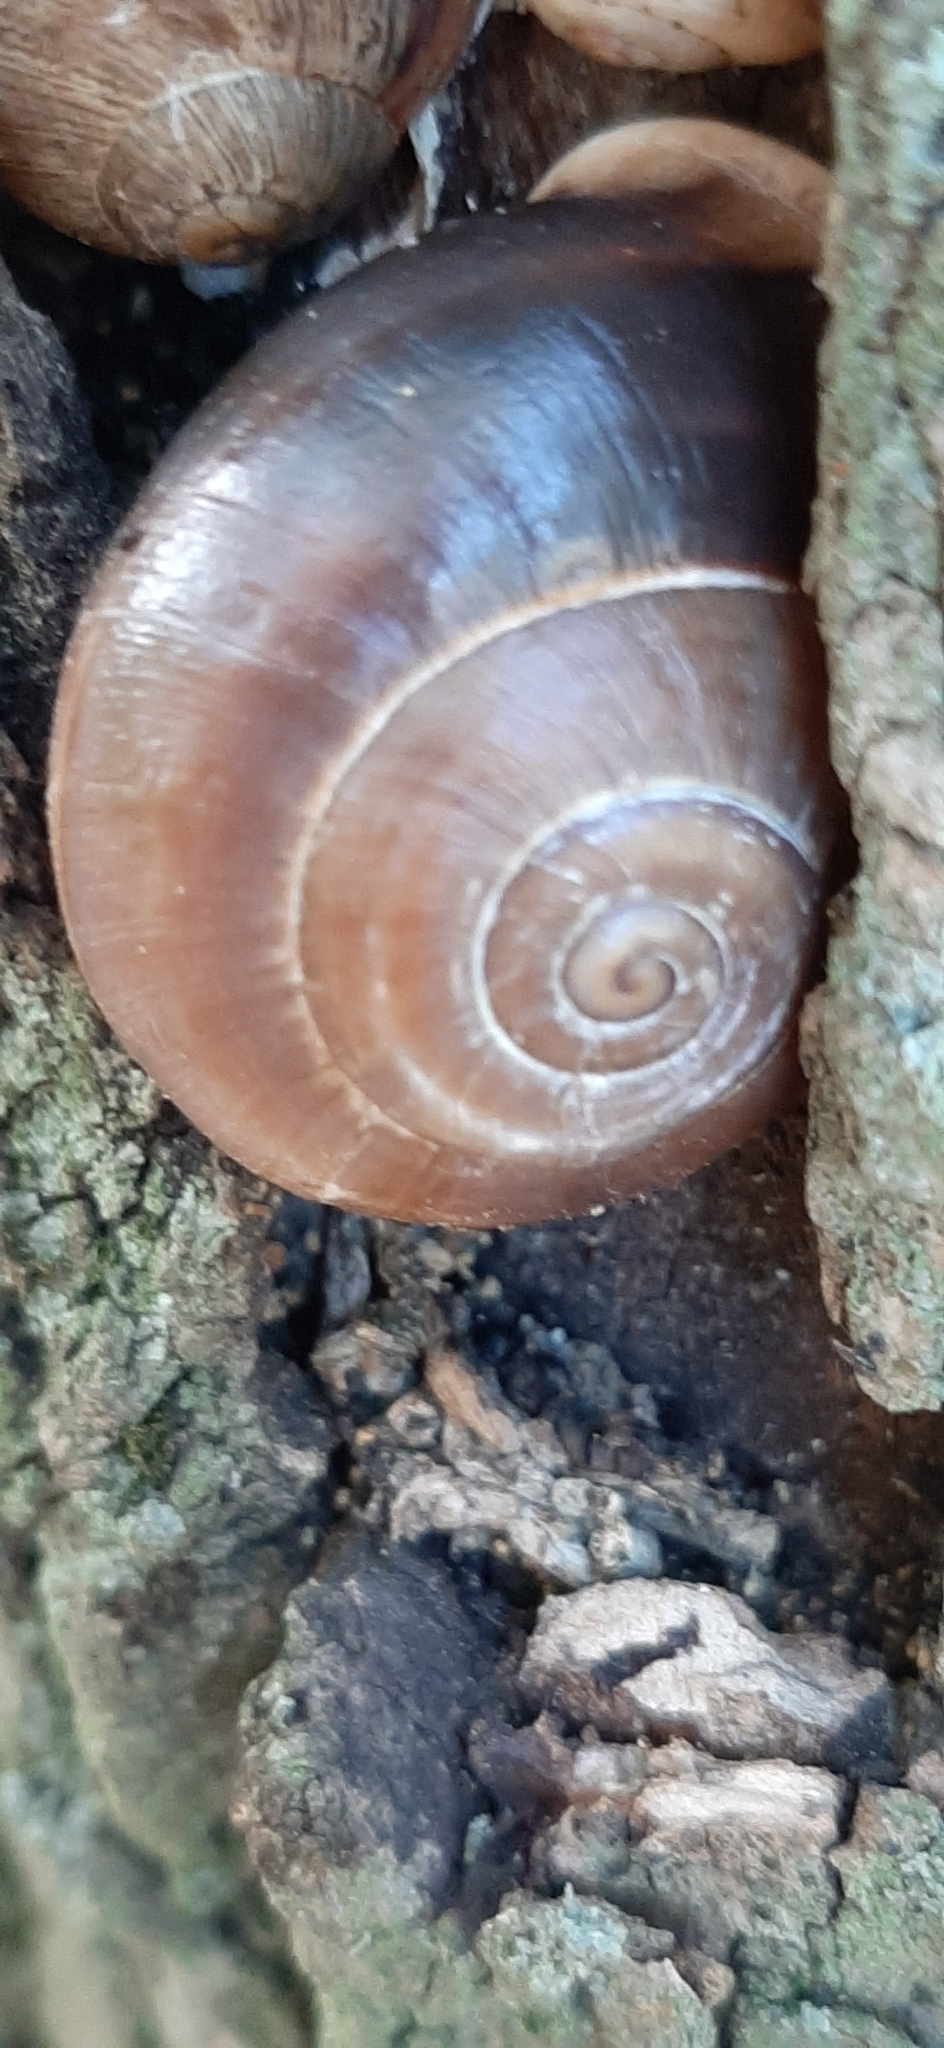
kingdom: Animalia
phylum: Mollusca
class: Gastropoda
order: Stylommatophora
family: Helicidae
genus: Otala
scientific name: Otala lactea
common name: Milk snail
